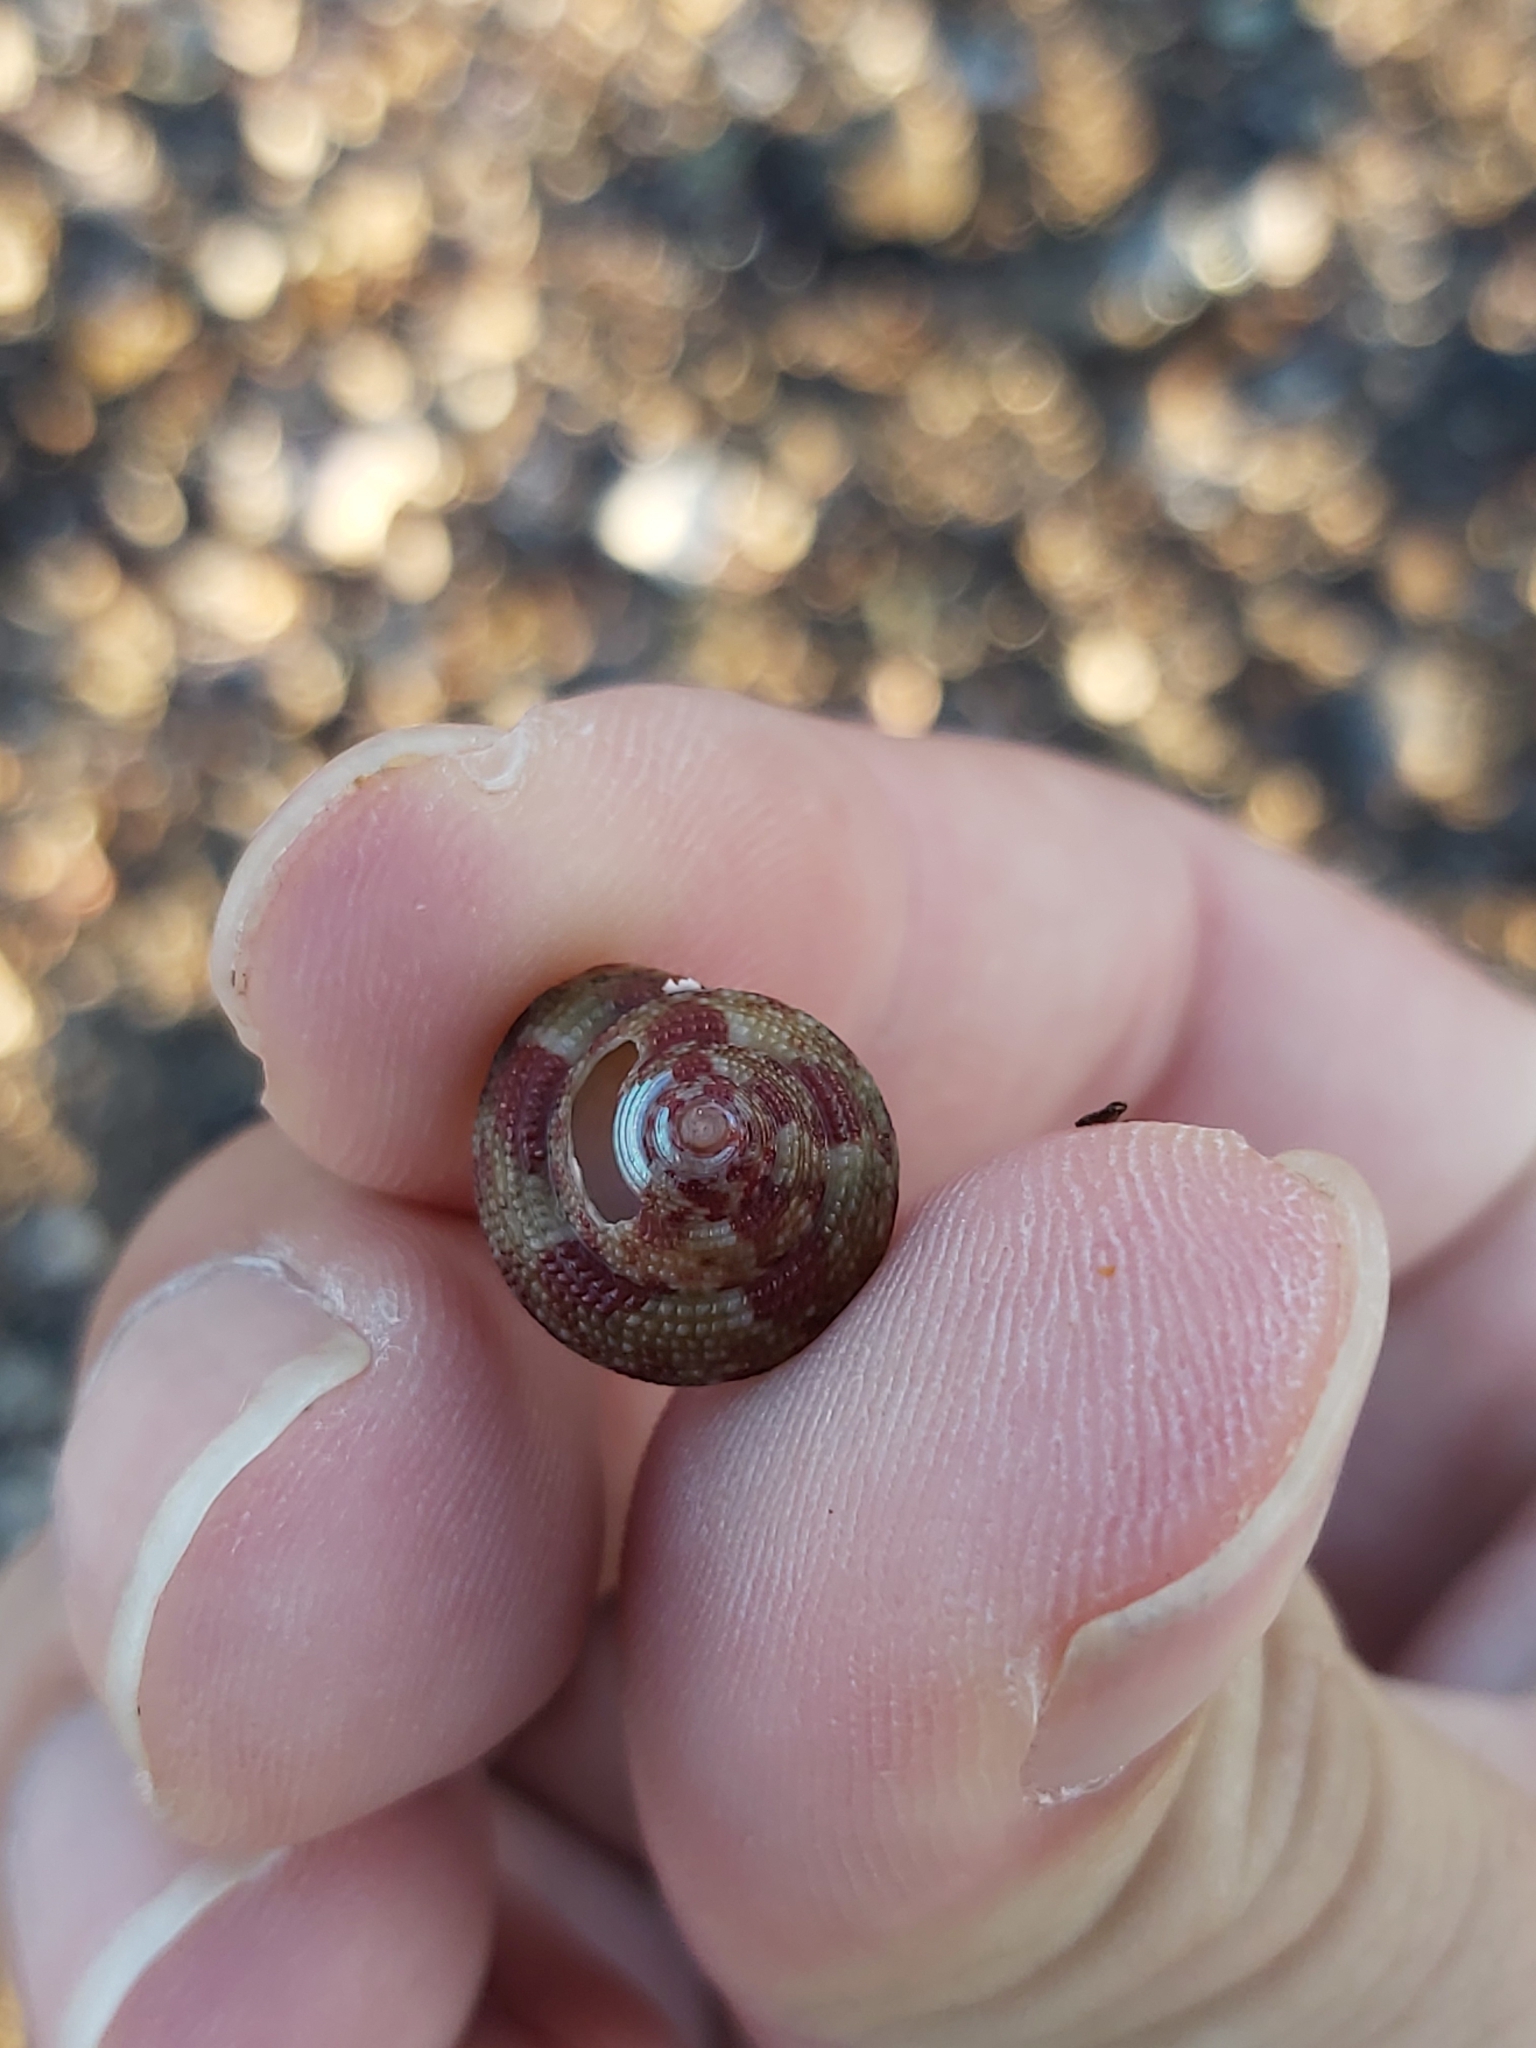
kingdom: Animalia
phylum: Mollusca
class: Gastropoda
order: Trochida
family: Trochidae
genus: Clanculus
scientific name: Clanculus clangulus
